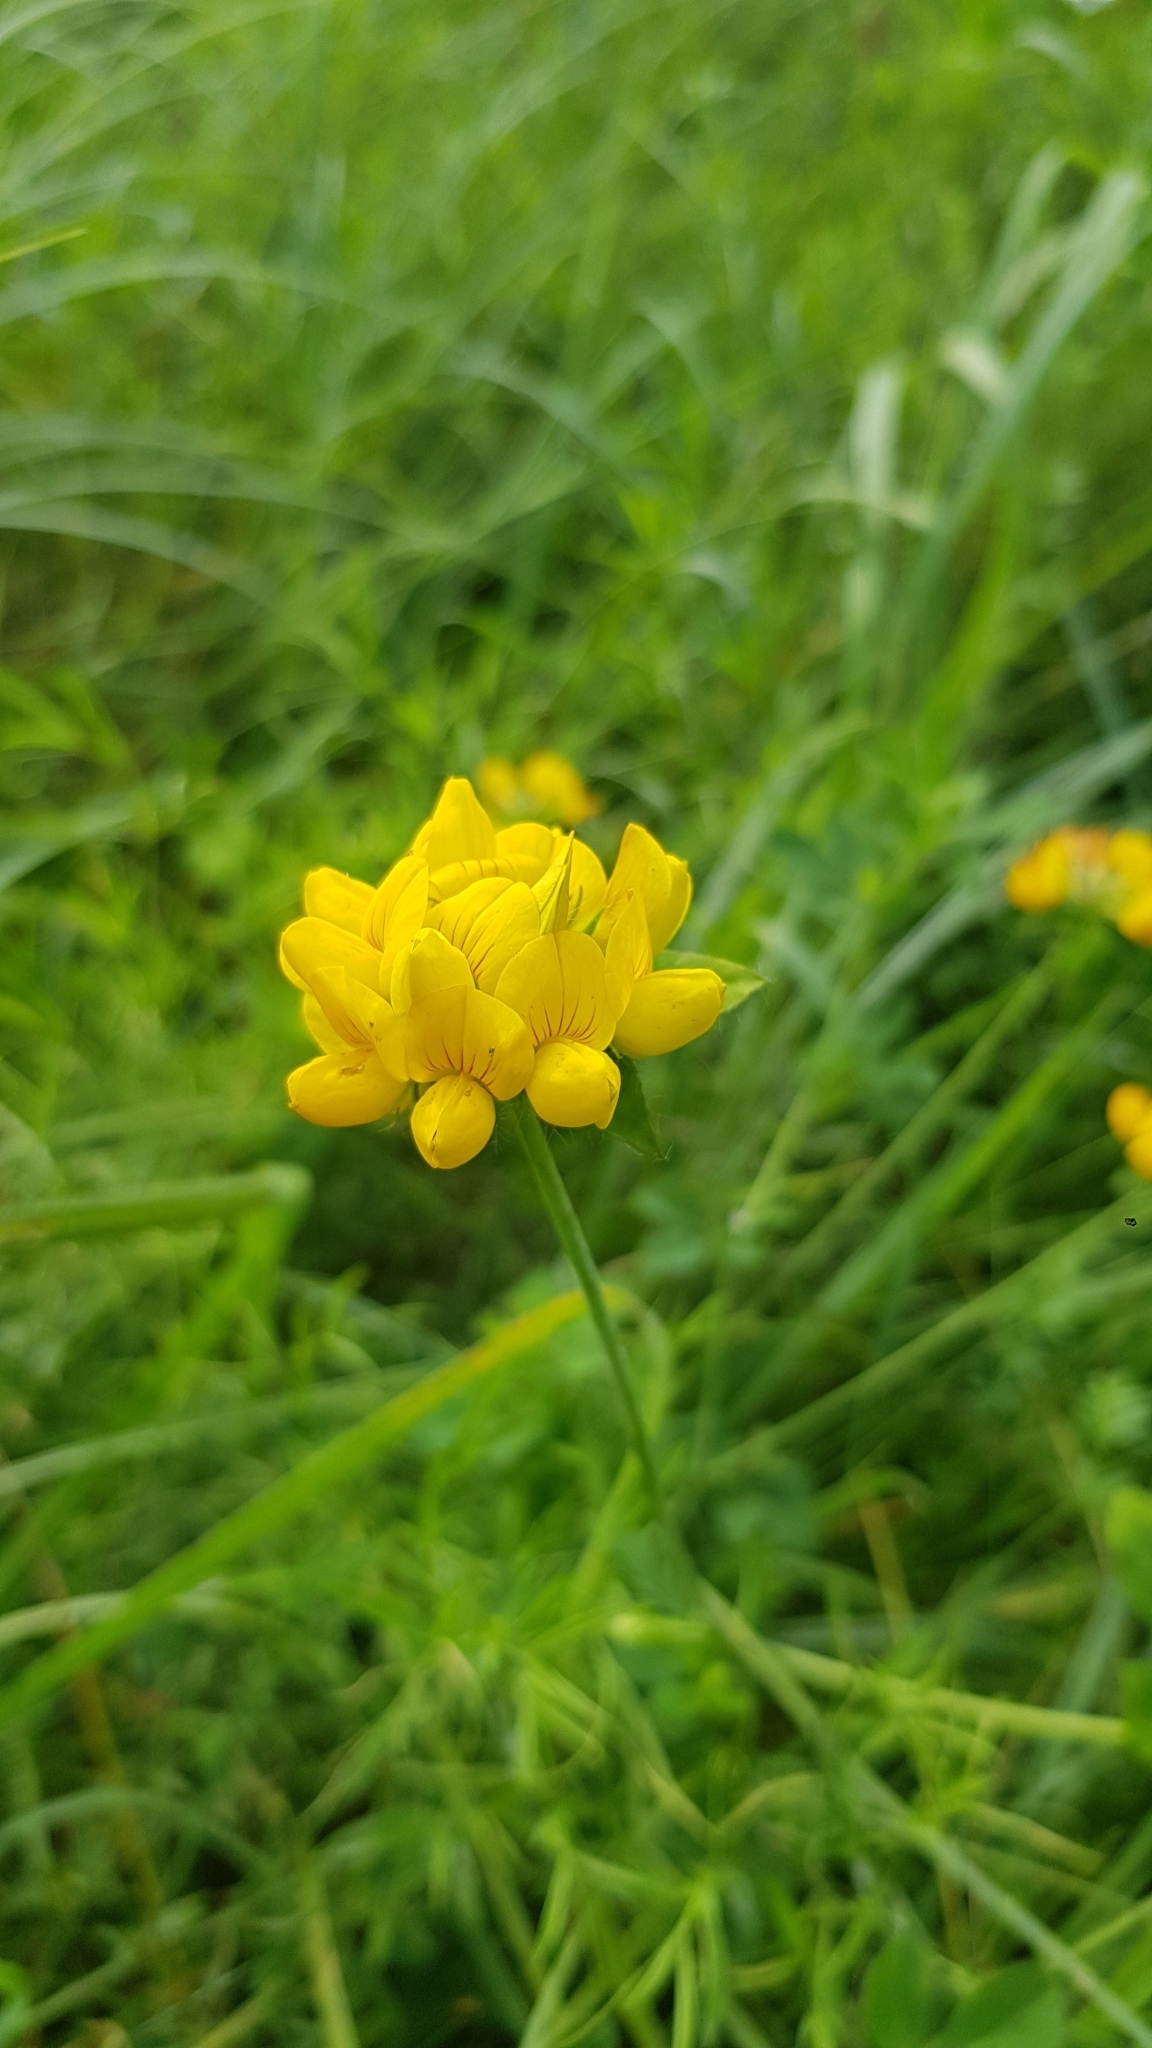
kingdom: Plantae
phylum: Tracheophyta
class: Magnoliopsida
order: Fabales
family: Fabaceae
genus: Lotus
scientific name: Lotus pedunculatus
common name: Greater birdsfoot-trefoil
